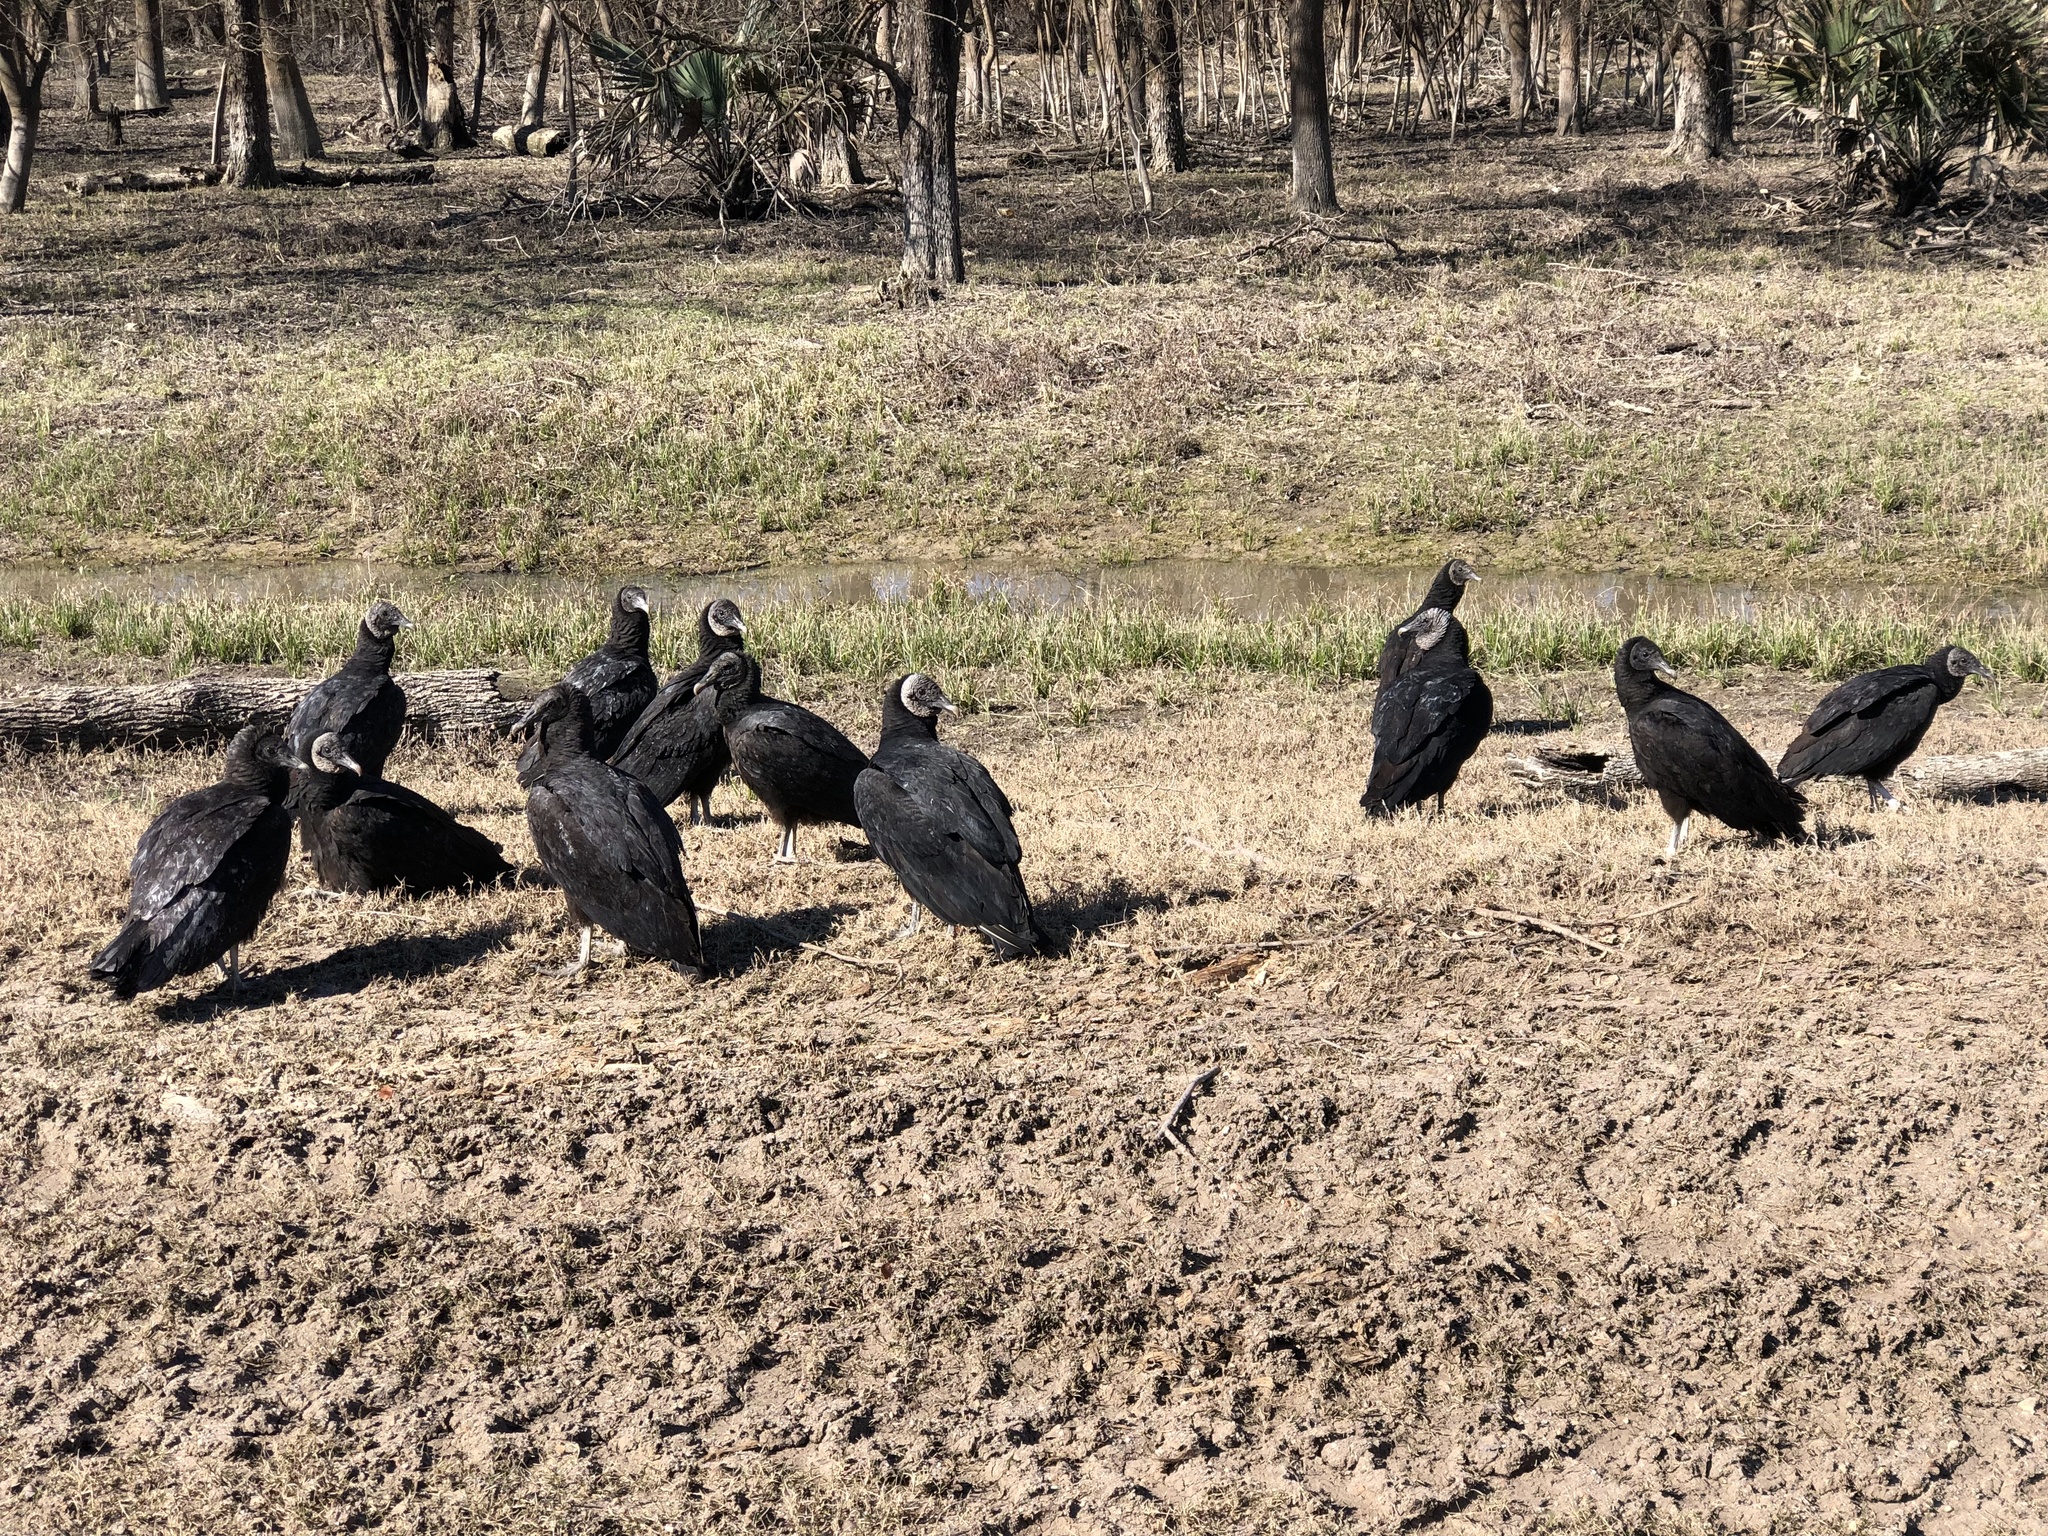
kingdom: Animalia
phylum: Chordata
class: Aves
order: Accipitriformes
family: Cathartidae
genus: Coragyps
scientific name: Coragyps atratus
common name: Black vulture
